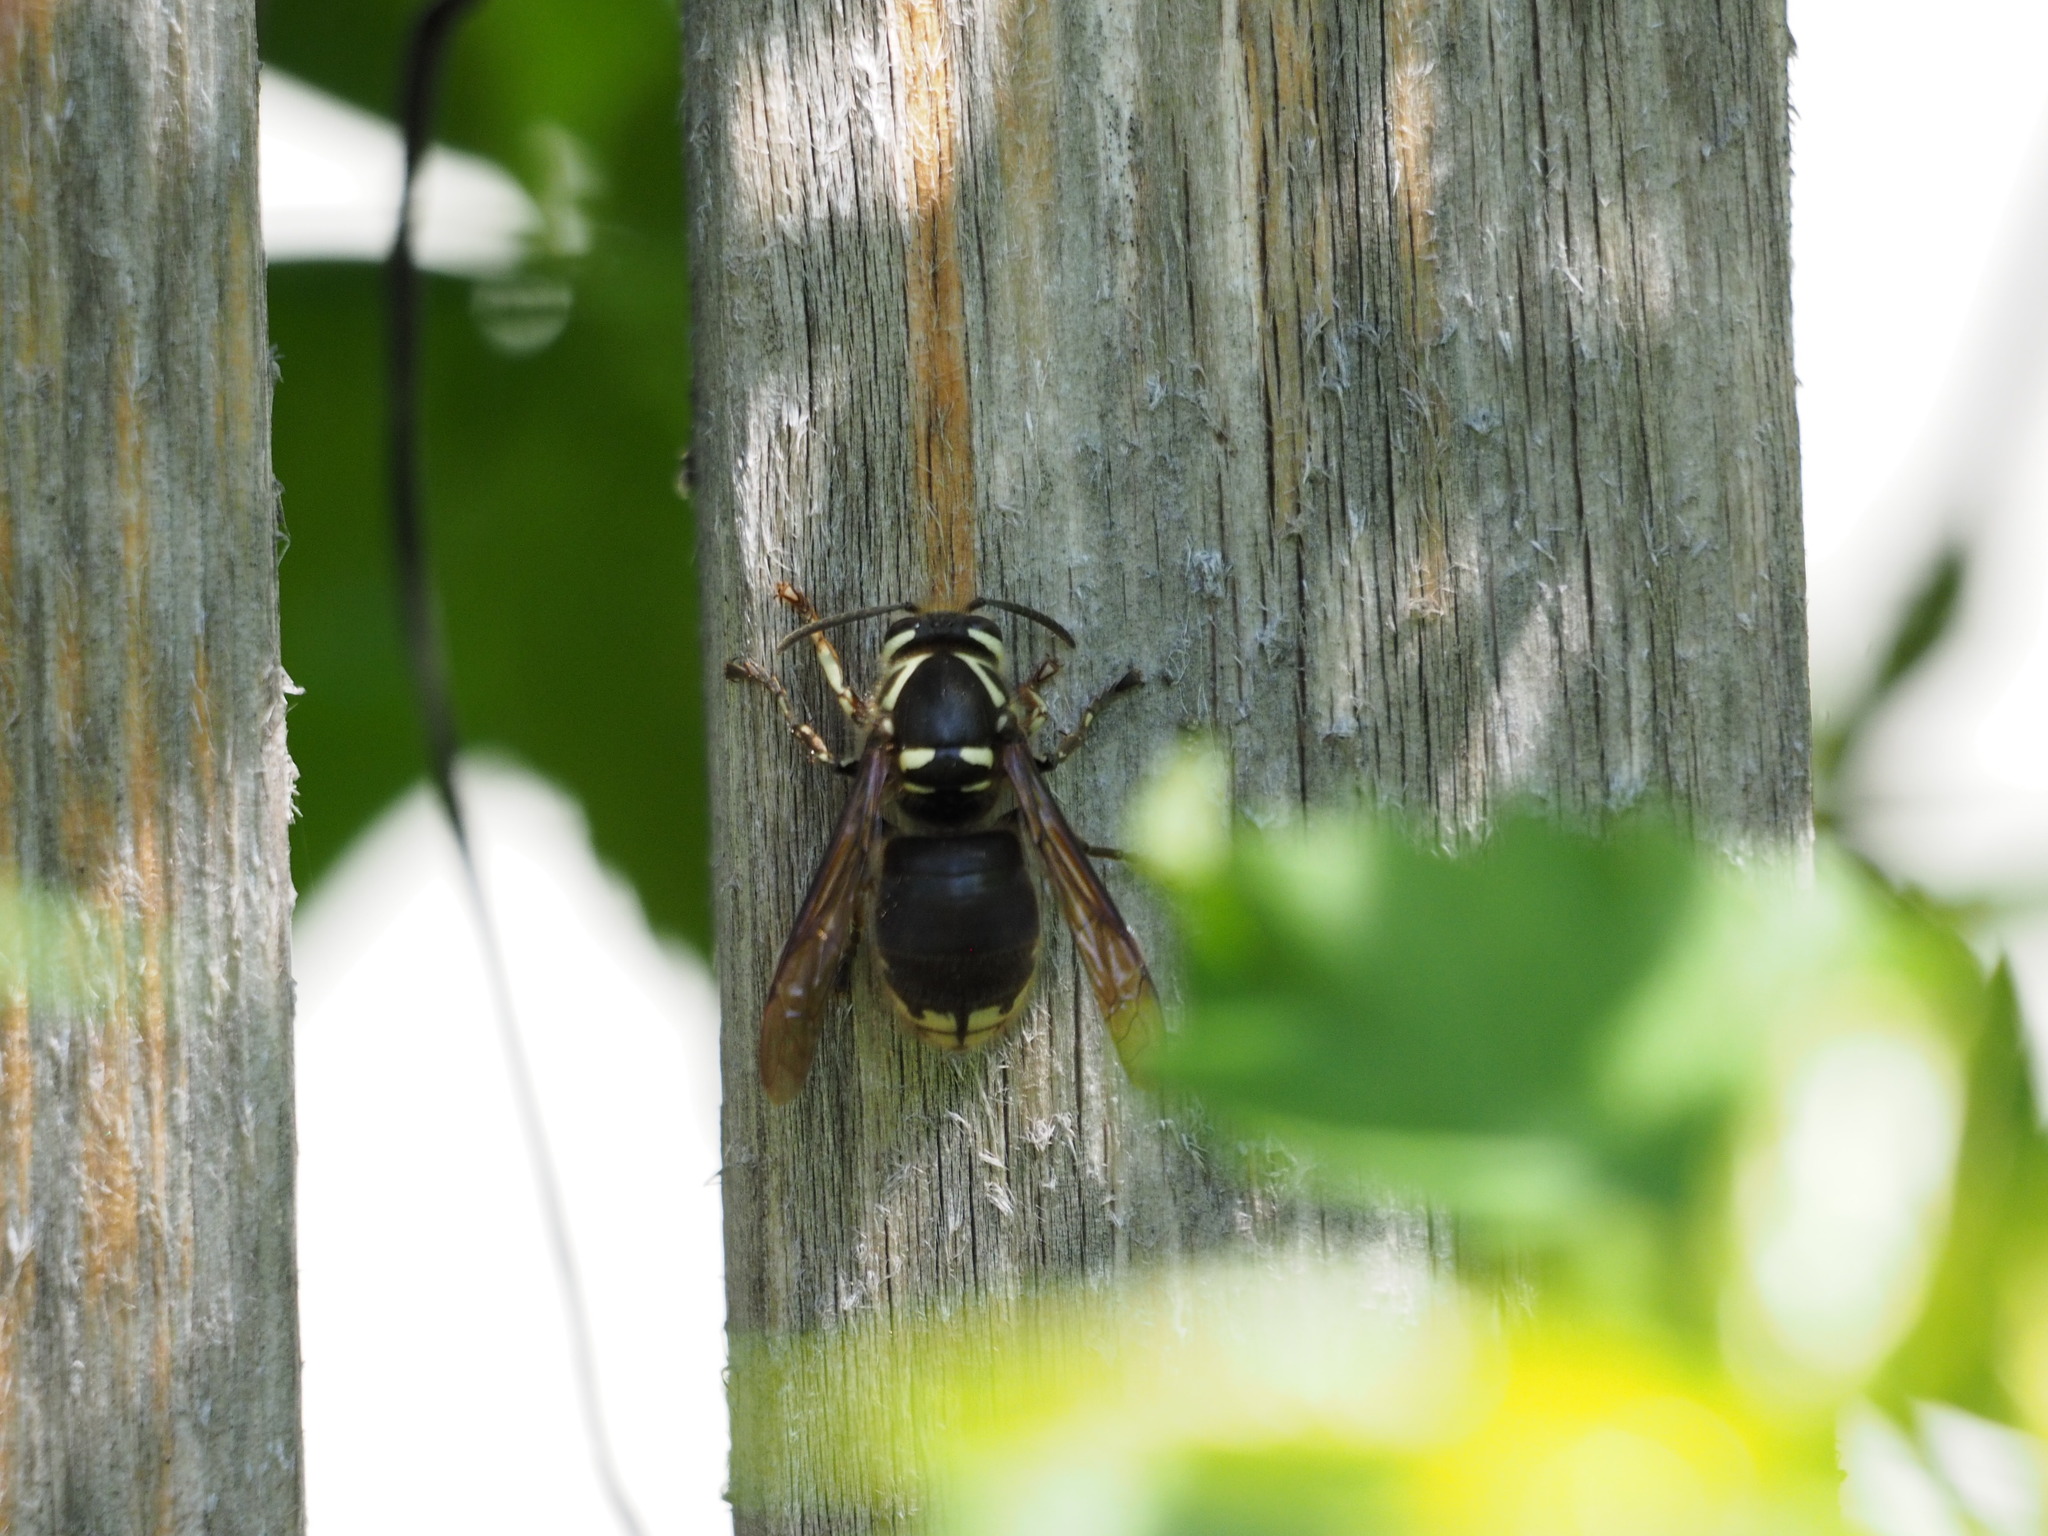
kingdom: Animalia
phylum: Arthropoda
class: Insecta
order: Hymenoptera
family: Vespidae
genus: Dolichovespula
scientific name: Dolichovespula maculata
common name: Bald-faced hornet
